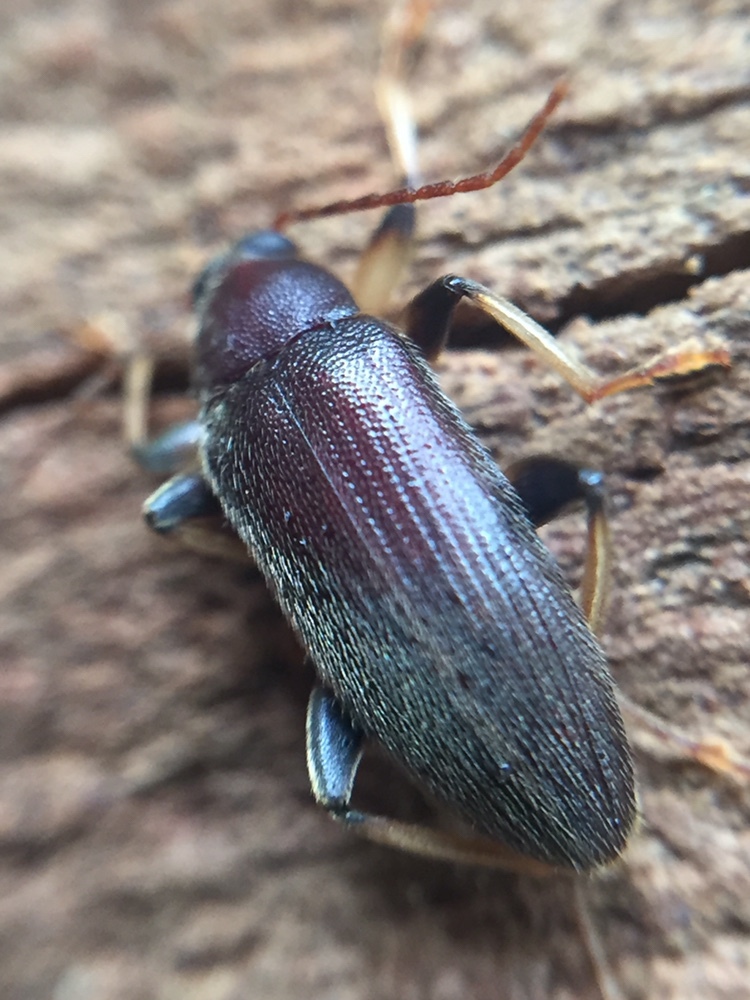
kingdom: Animalia
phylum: Arthropoda
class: Insecta
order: Coleoptera
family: Tenebrionidae
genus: Homotrysis
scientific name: Homotrysis
